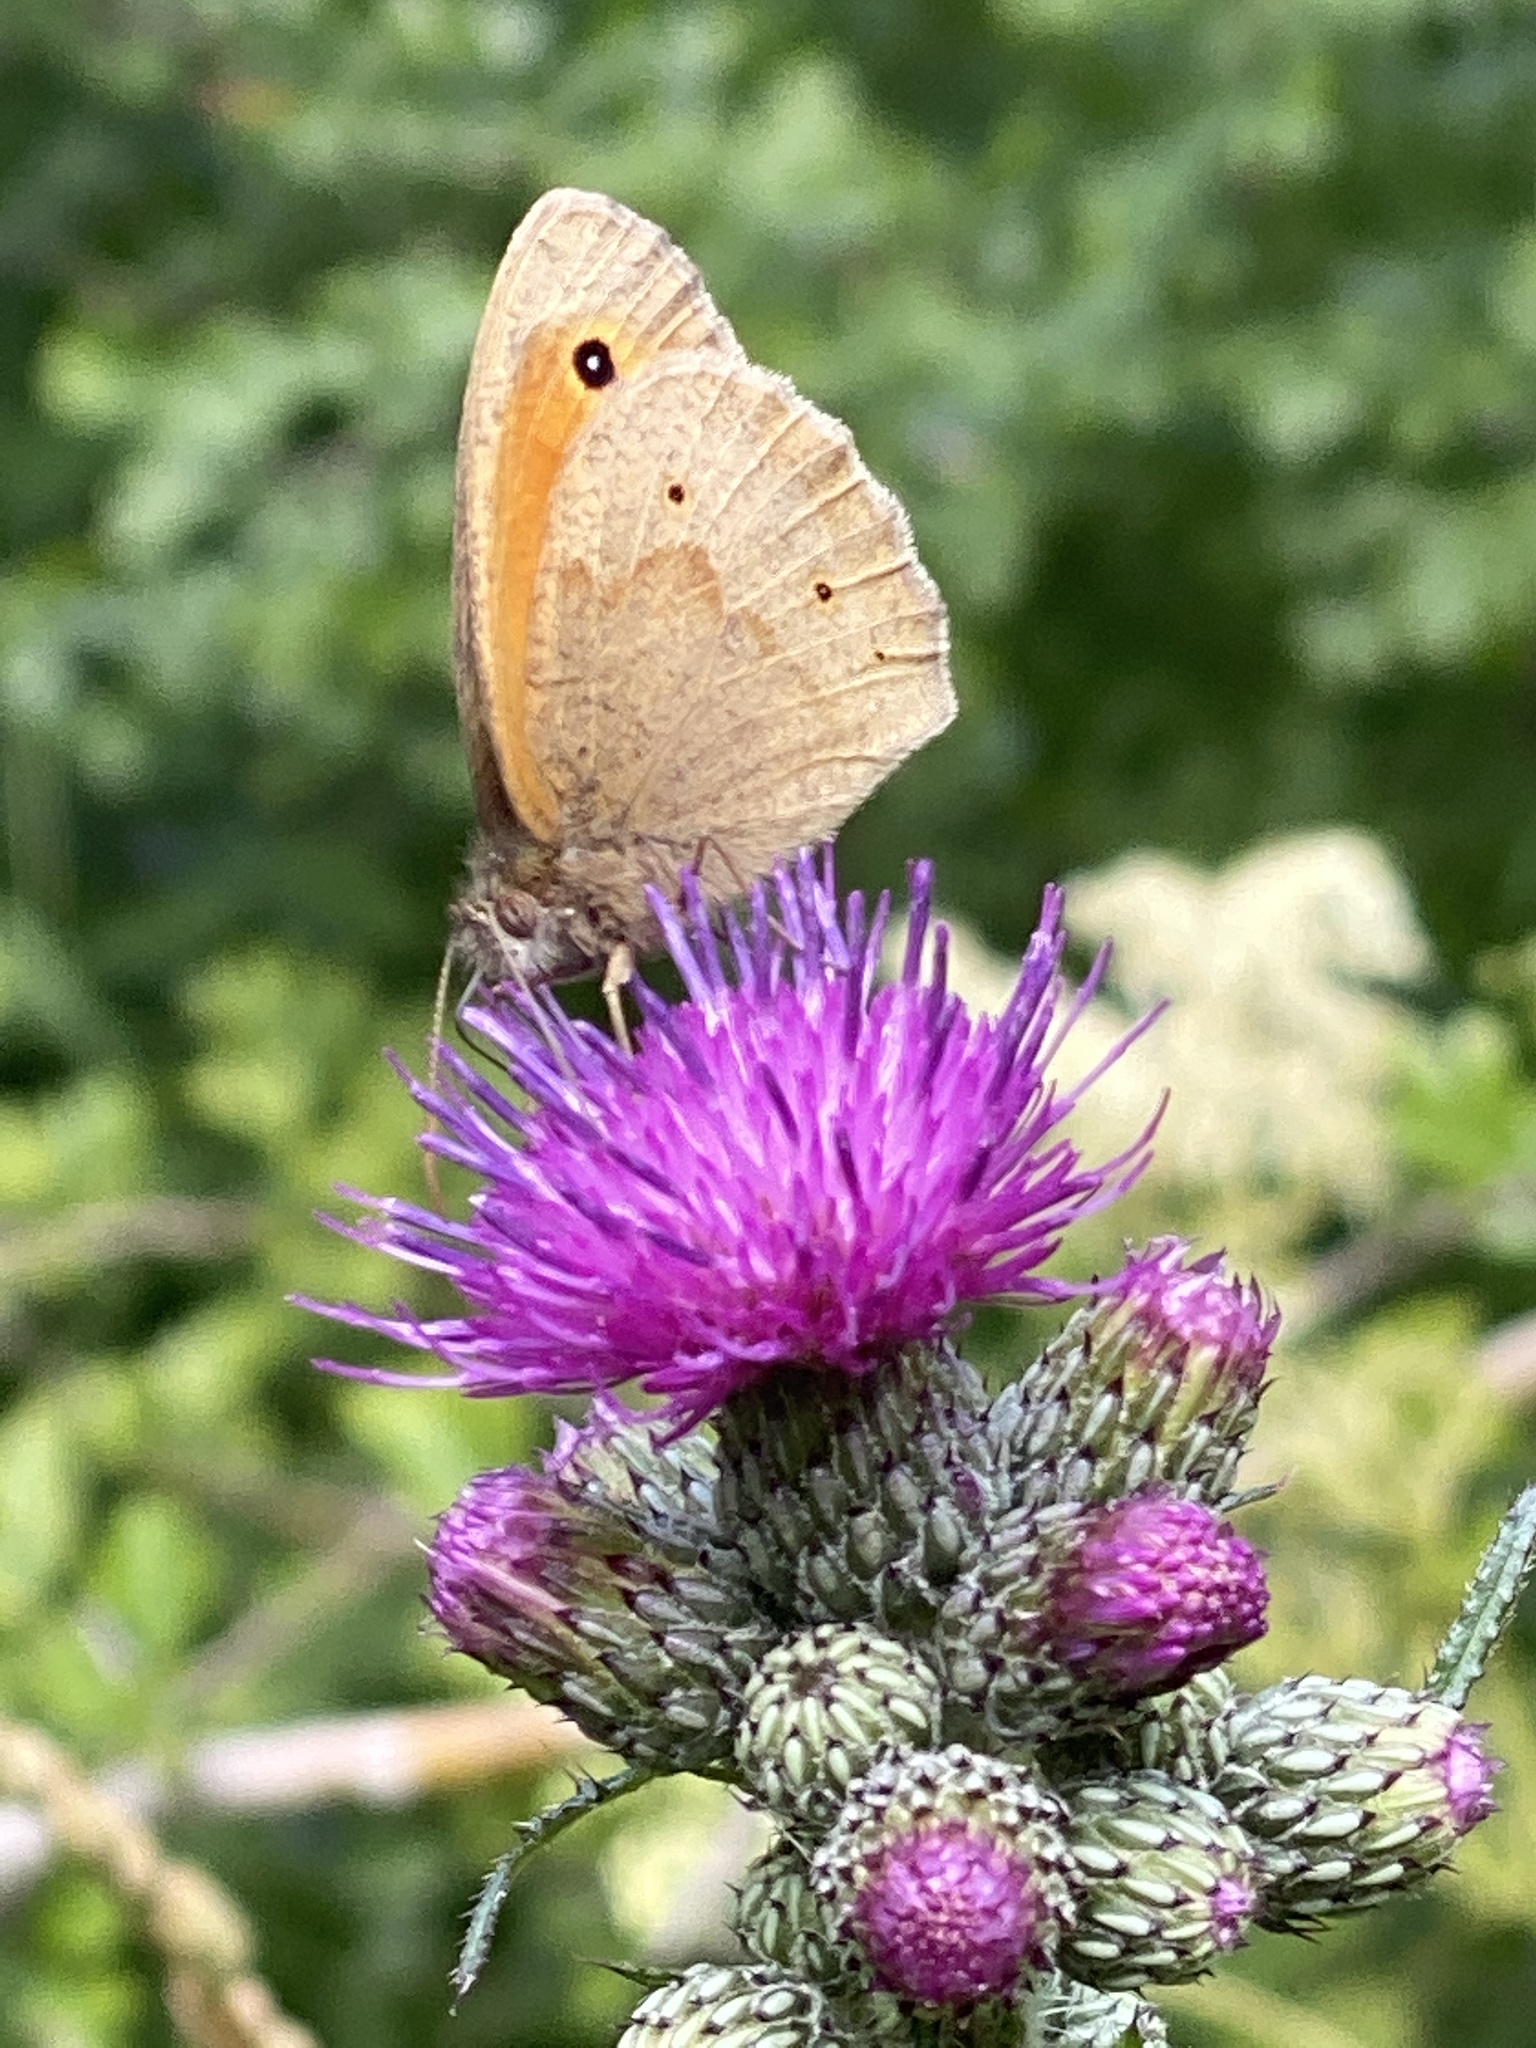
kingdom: Animalia
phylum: Arthropoda
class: Insecta
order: Lepidoptera
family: Nymphalidae
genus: Maniola
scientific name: Maniola jurtina
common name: Meadow brown
